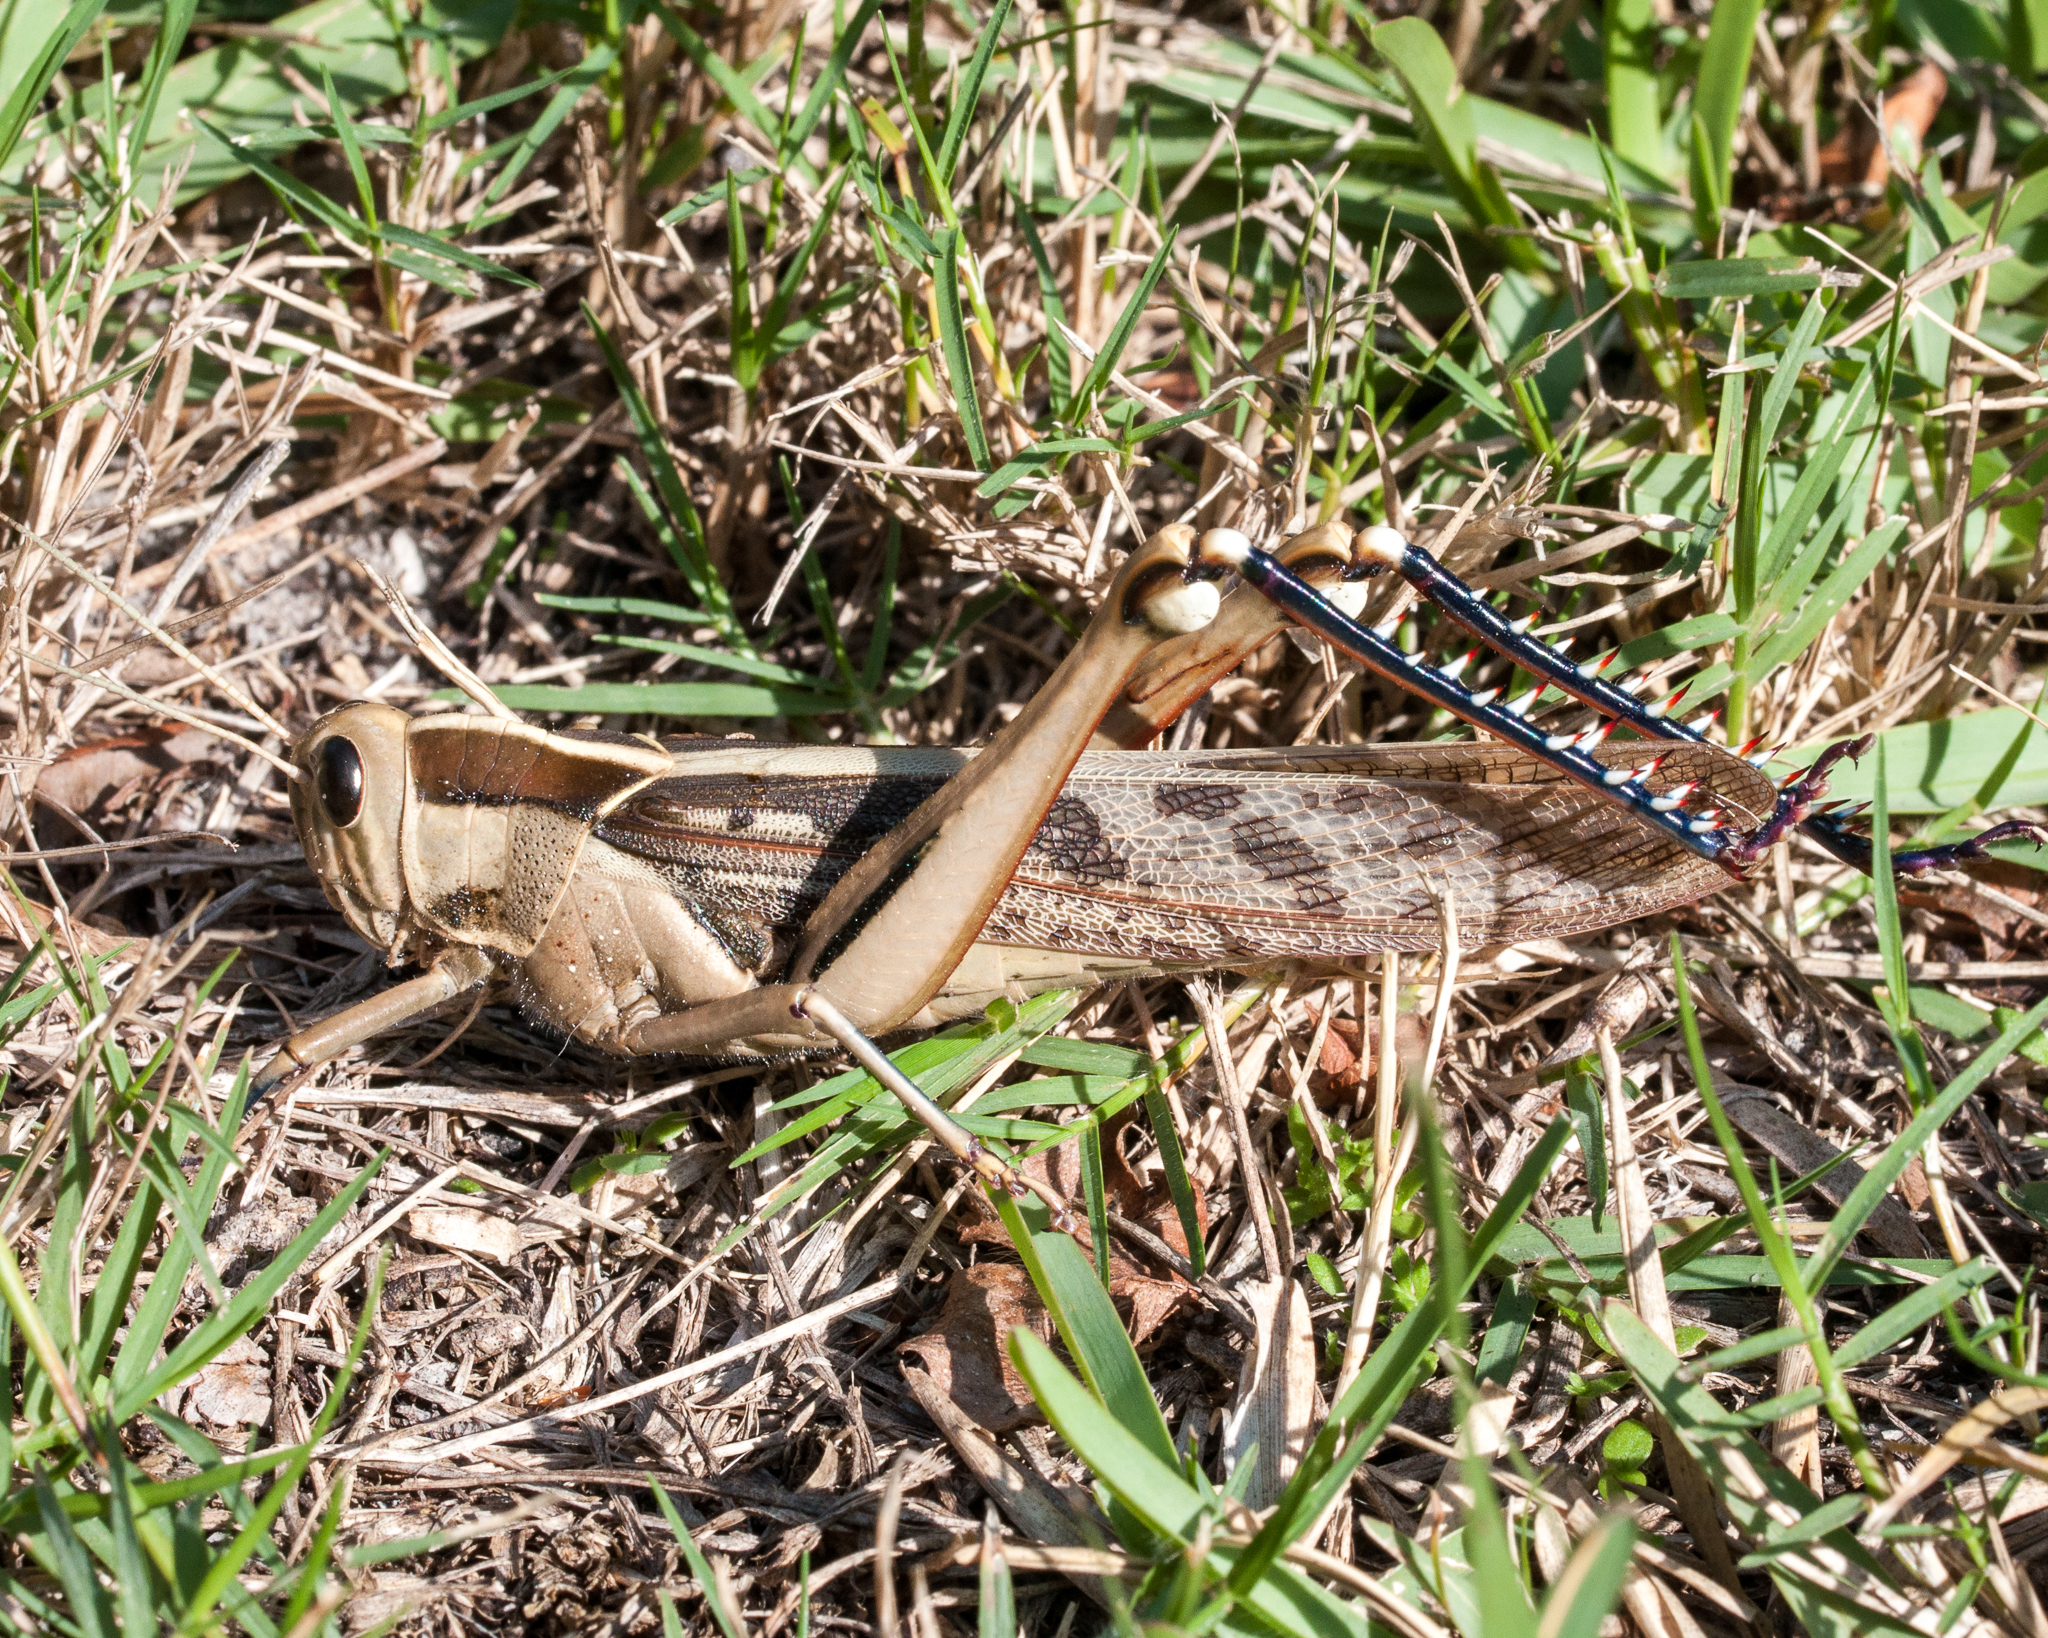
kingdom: Animalia
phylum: Arthropoda
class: Insecta
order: Orthoptera
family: Acrididae
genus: Acanthacris
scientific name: Acanthacris ruficornis
